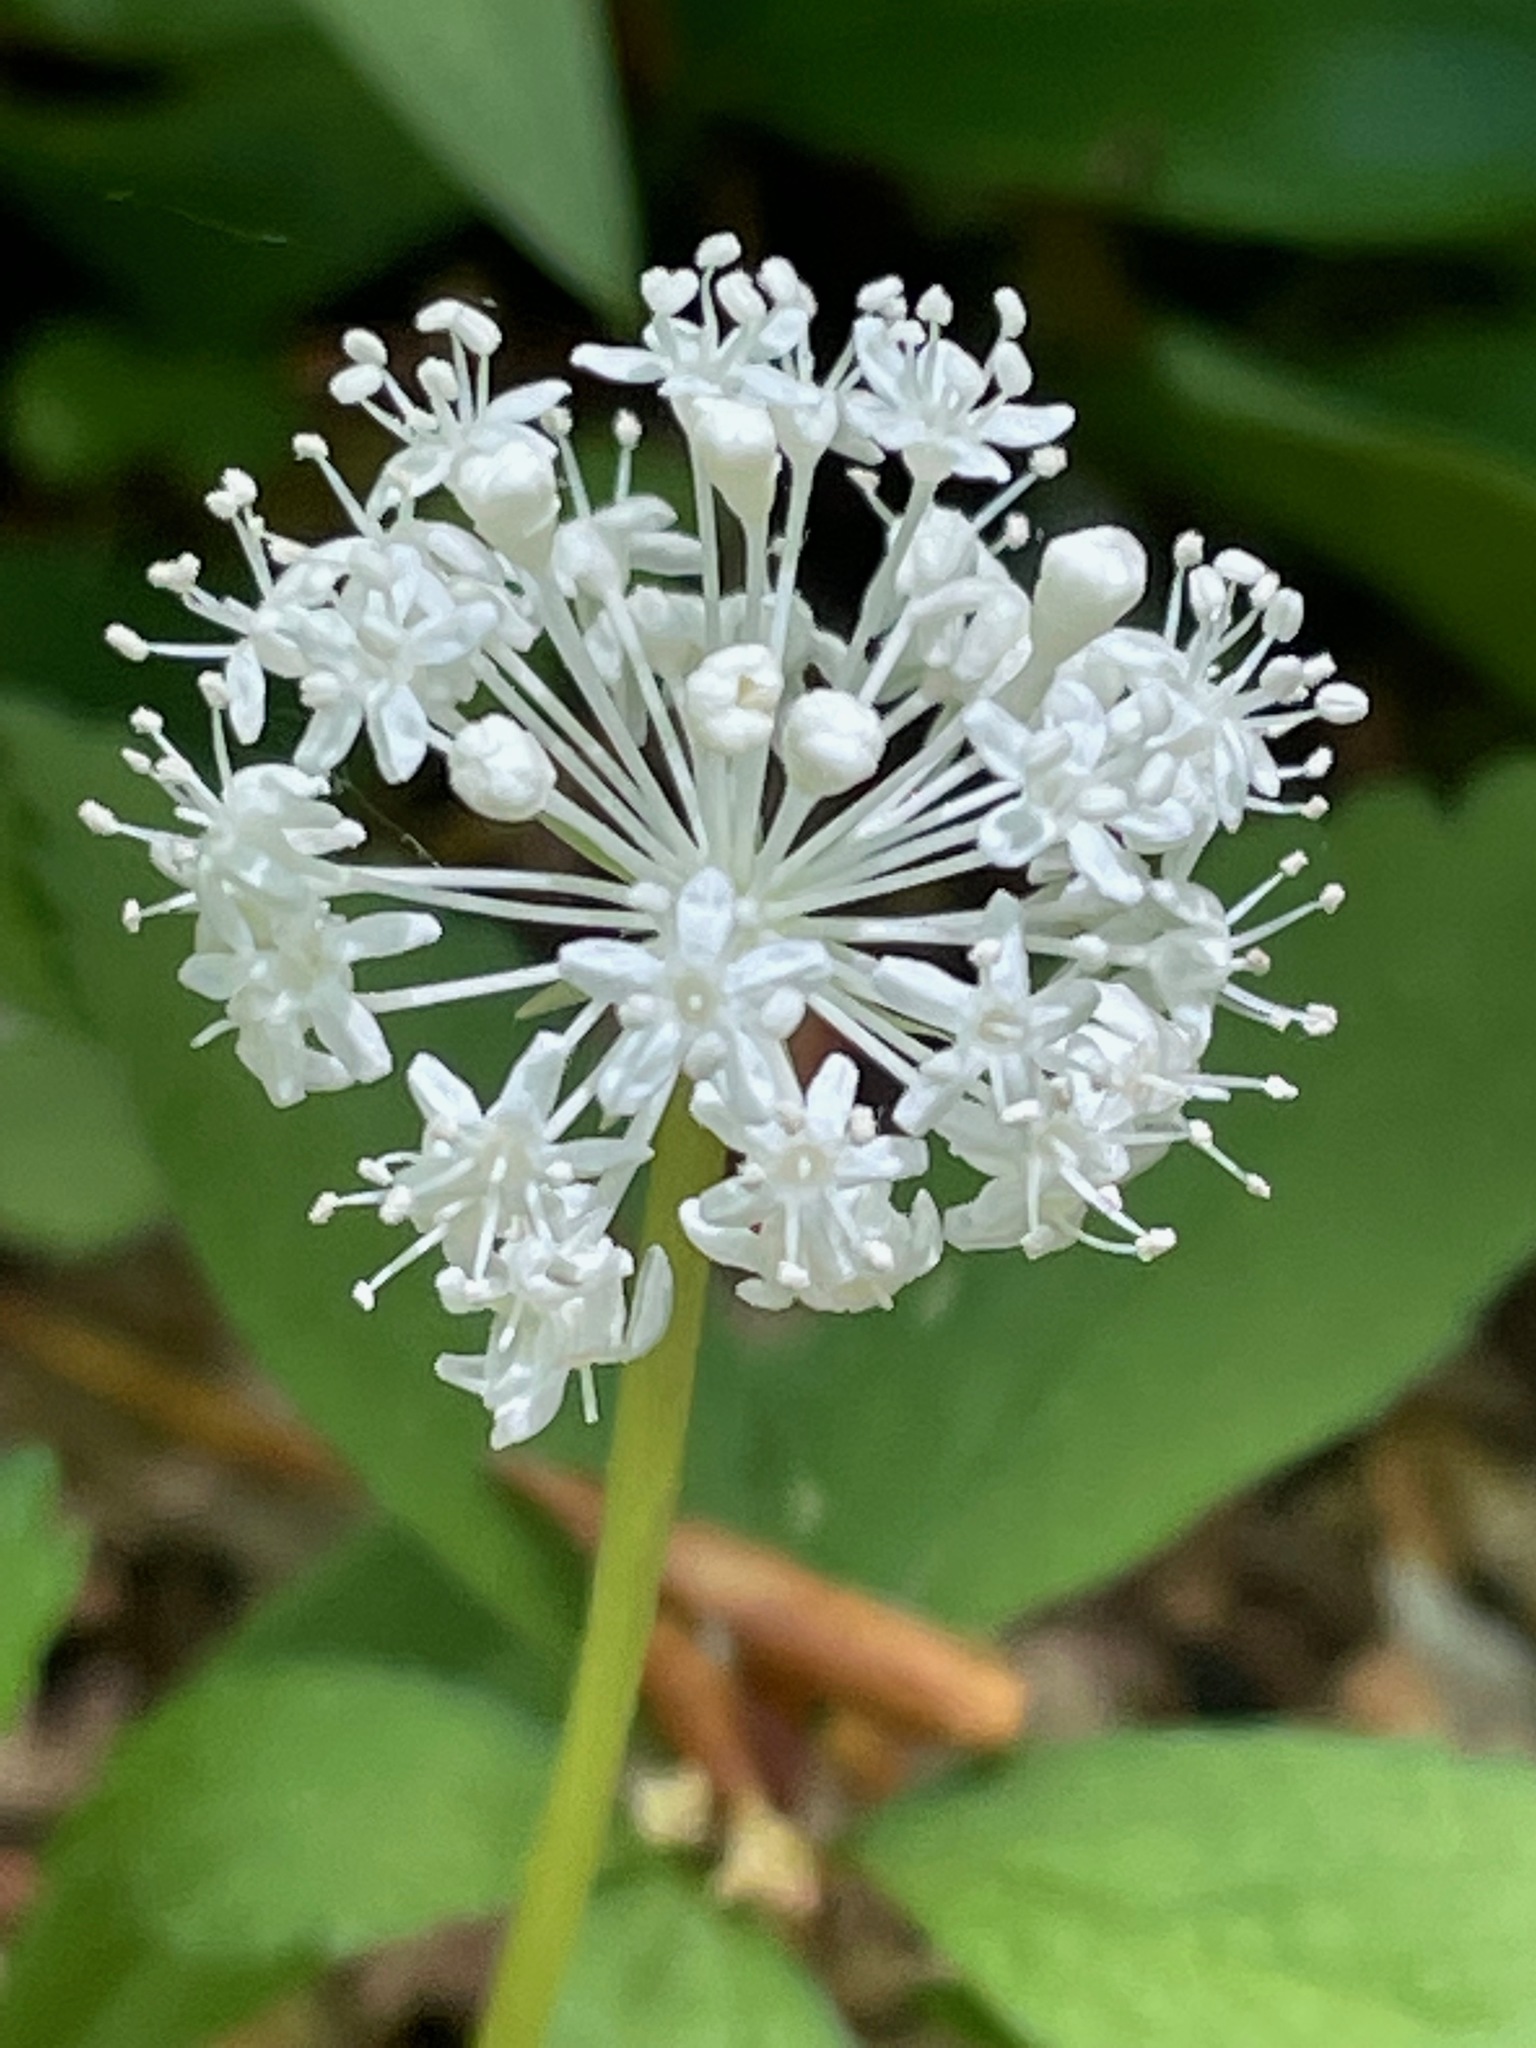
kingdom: Plantae
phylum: Tracheophyta
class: Magnoliopsida
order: Apiales
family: Araliaceae
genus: Panax
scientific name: Panax trifolius
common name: Dwarf ginseng
